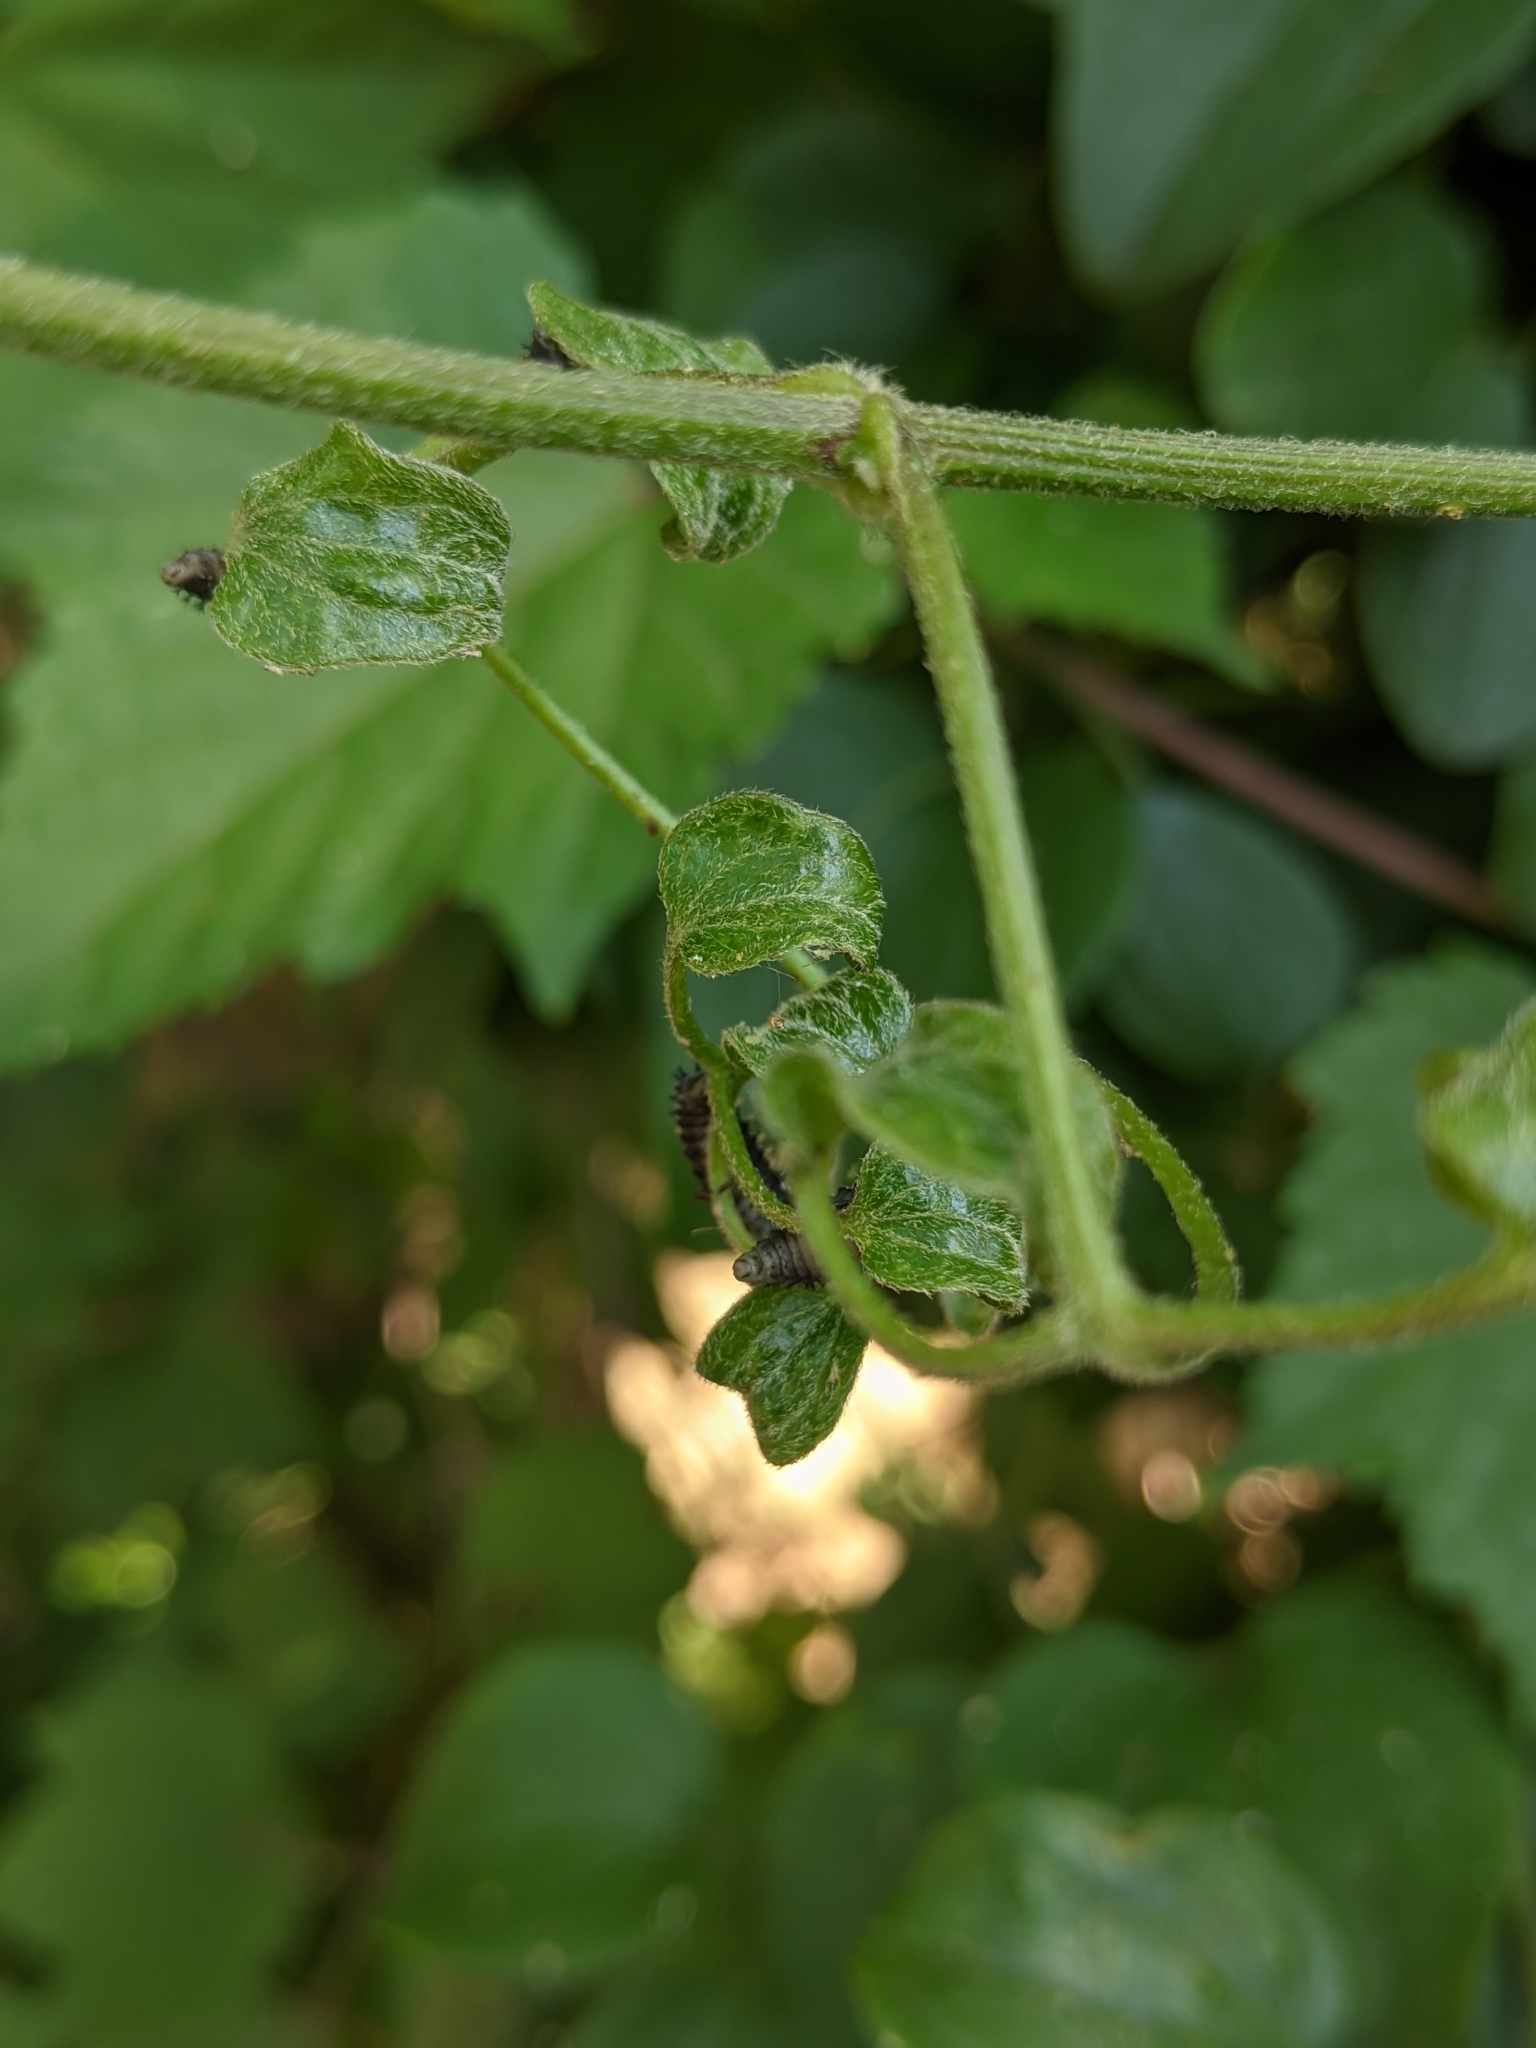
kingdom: Animalia
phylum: Arthropoda
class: Insecta
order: Coleoptera
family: Coccinellidae
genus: Harmonia
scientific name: Harmonia axyridis
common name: Harlequin ladybird
